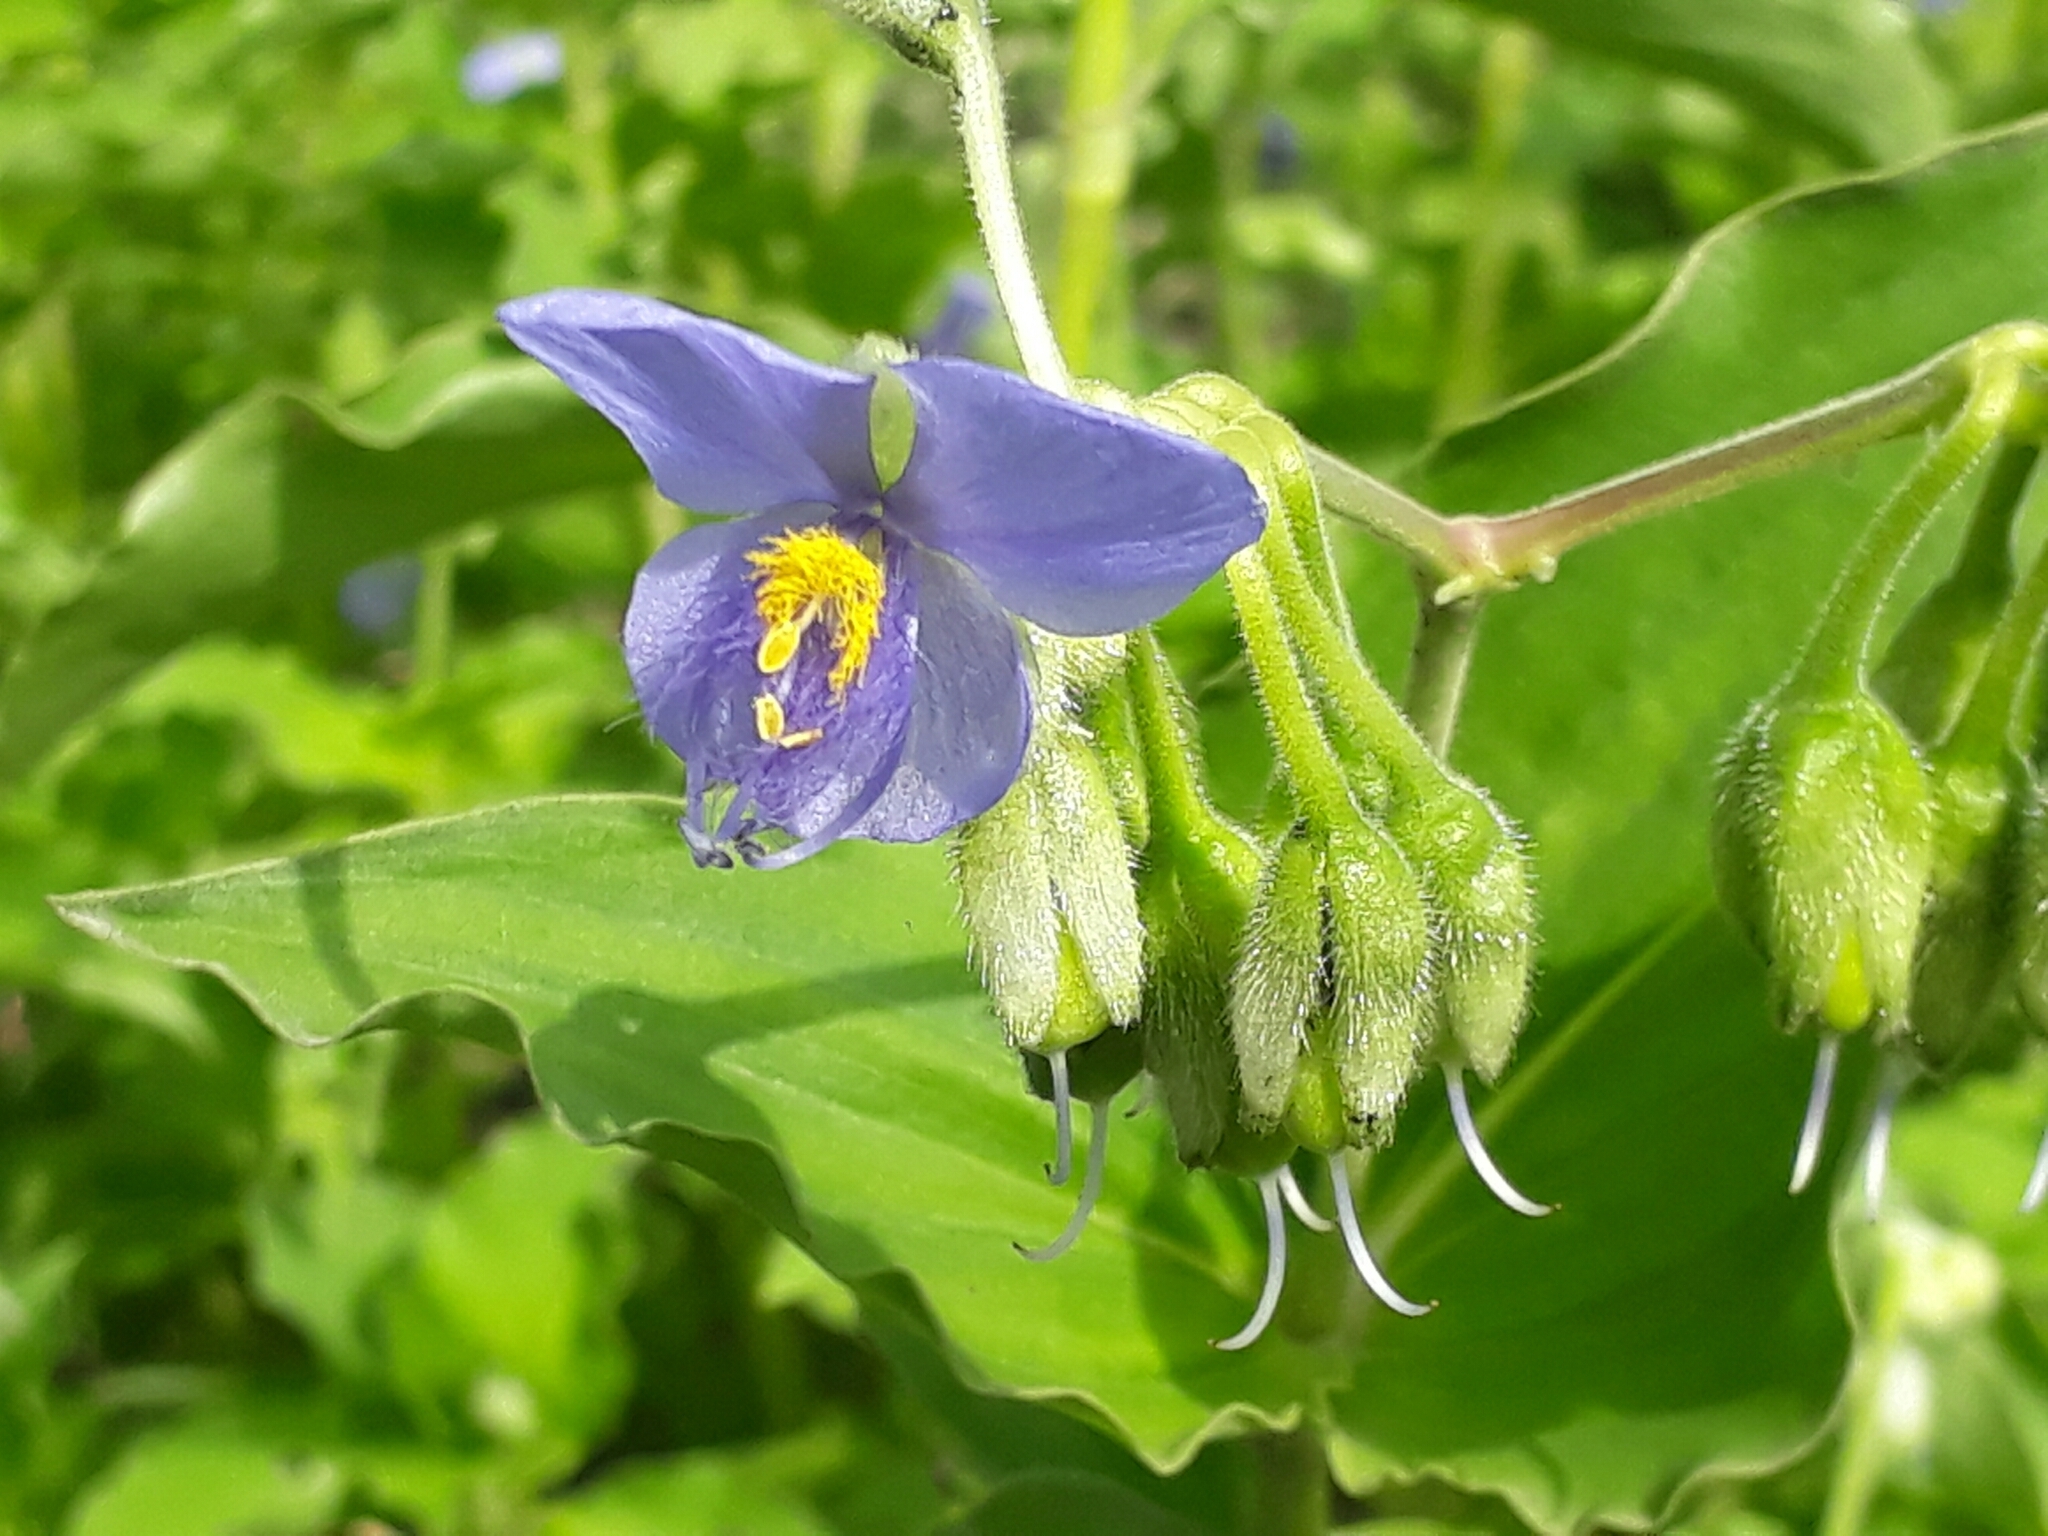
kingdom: Plantae
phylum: Tracheophyta
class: Liliopsida
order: Commelinales
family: Commelinaceae
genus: Tinantia
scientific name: Tinantia erecta
